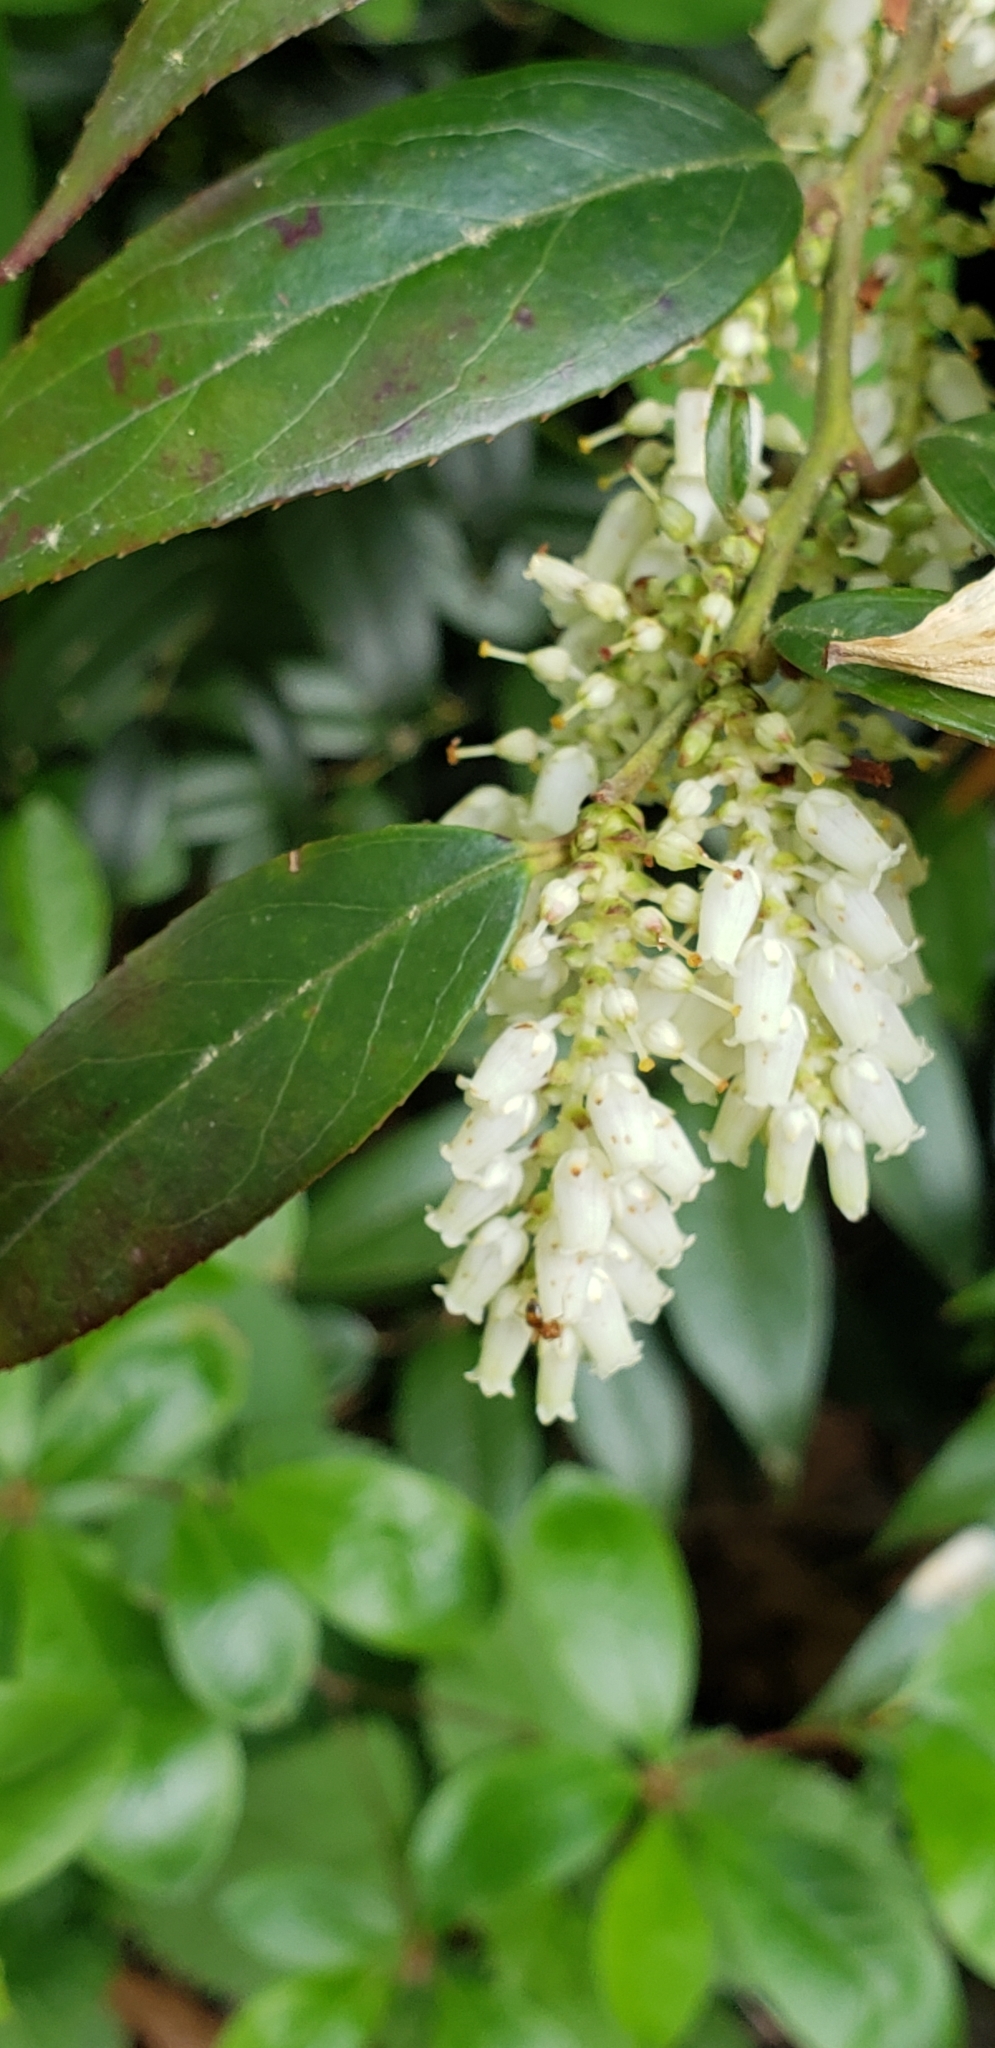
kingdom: Plantae
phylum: Tracheophyta
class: Magnoliopsida
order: Ericales
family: Ericaceae
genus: Leucothoe
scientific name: Leucothoe fontanesiana
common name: Fetterbush
